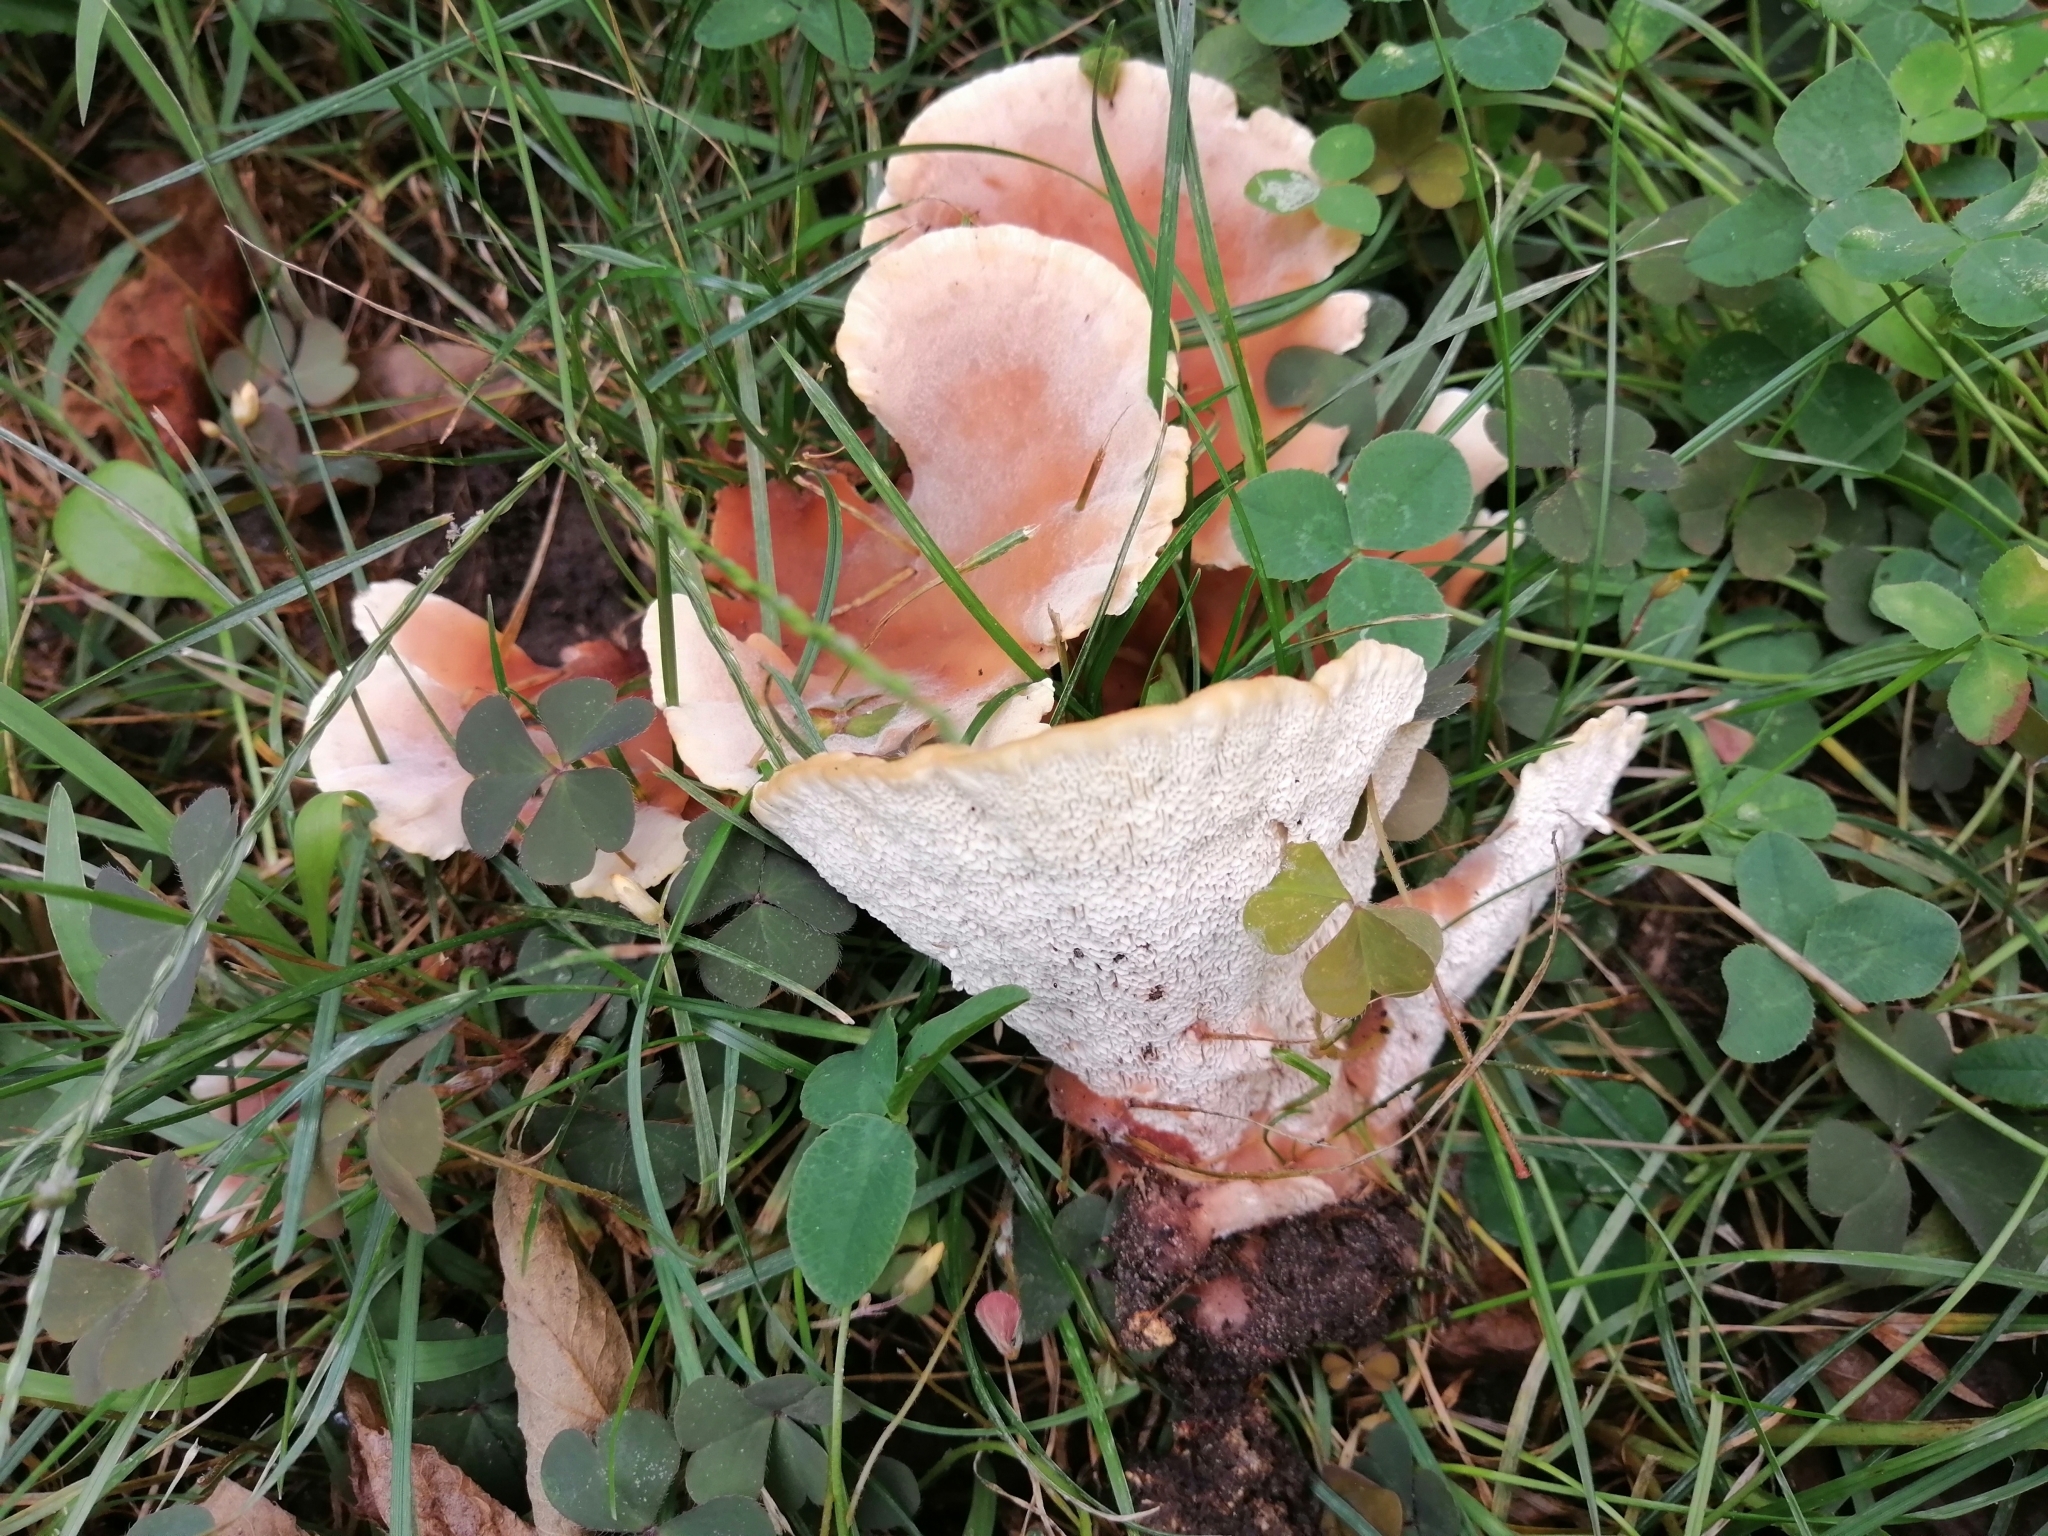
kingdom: Fungi
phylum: Basidiomycota
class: Agaricomycetes
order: Polyporales
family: Podoscyphaceae
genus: Abortiporus
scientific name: Abortiporus biennis
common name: Blushing rosette
